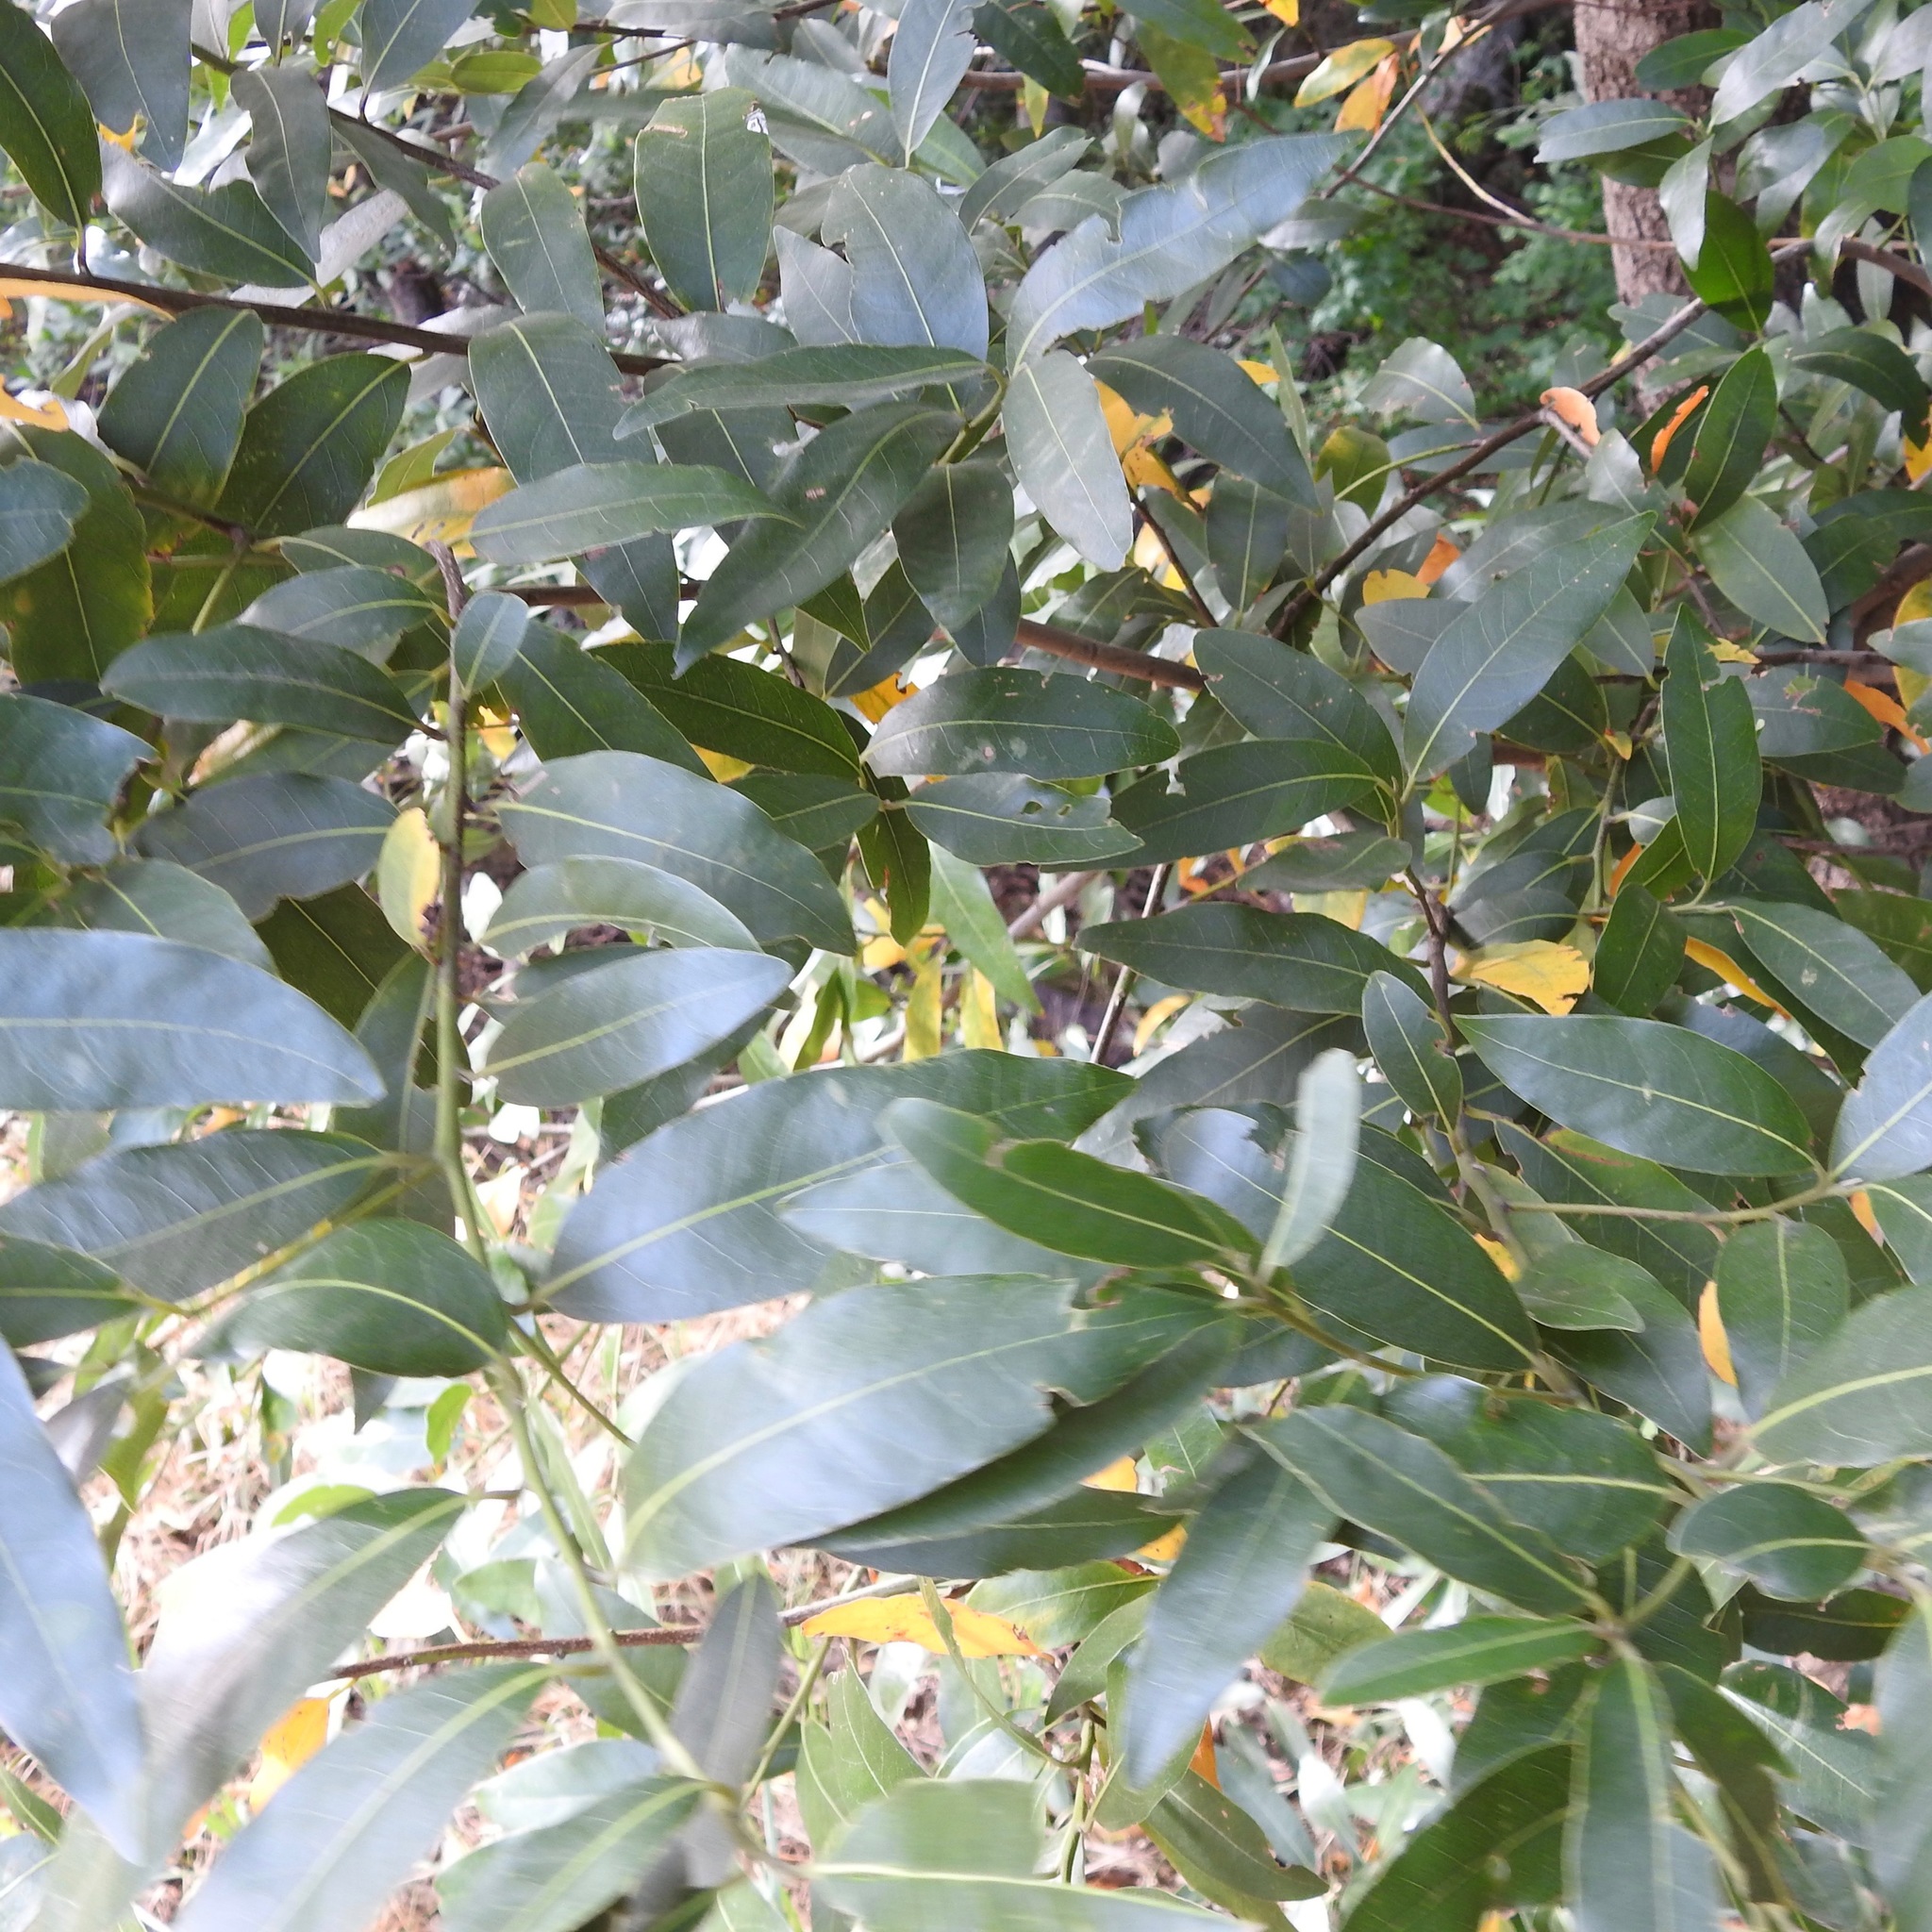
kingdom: Plantae
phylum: Tracheophyta
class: Magnoliopsida
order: Laurales
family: Lauraceae
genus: Umbellularia
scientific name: Umbellularia californica
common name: California bay
